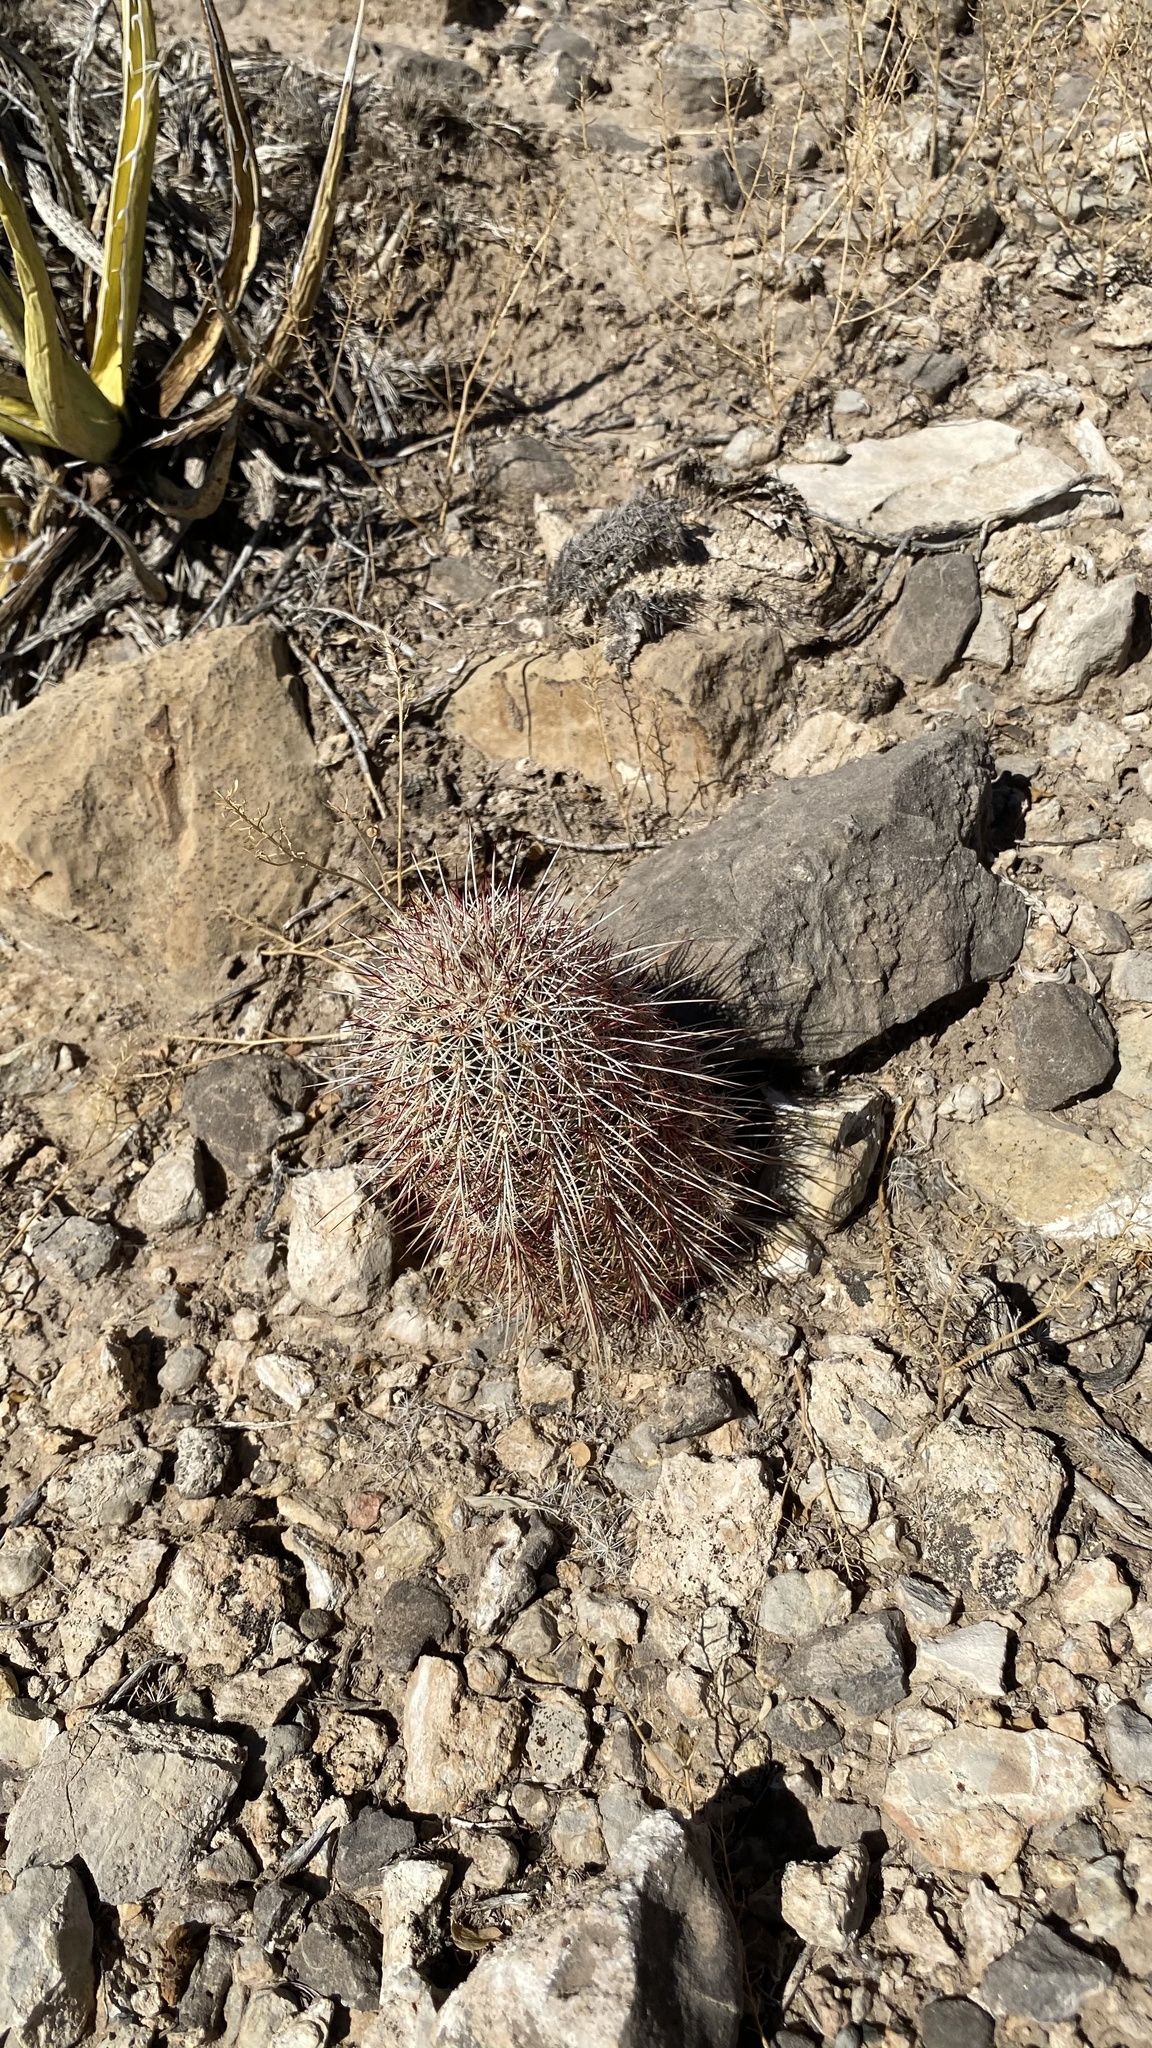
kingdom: Plantae
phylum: Tracheophyta
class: Magnoliopsida
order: Caryophyllales
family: Cactaceae
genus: Echinocereus
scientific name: Echinocereus viridiflorus
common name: Nylon hedgehog cactus
